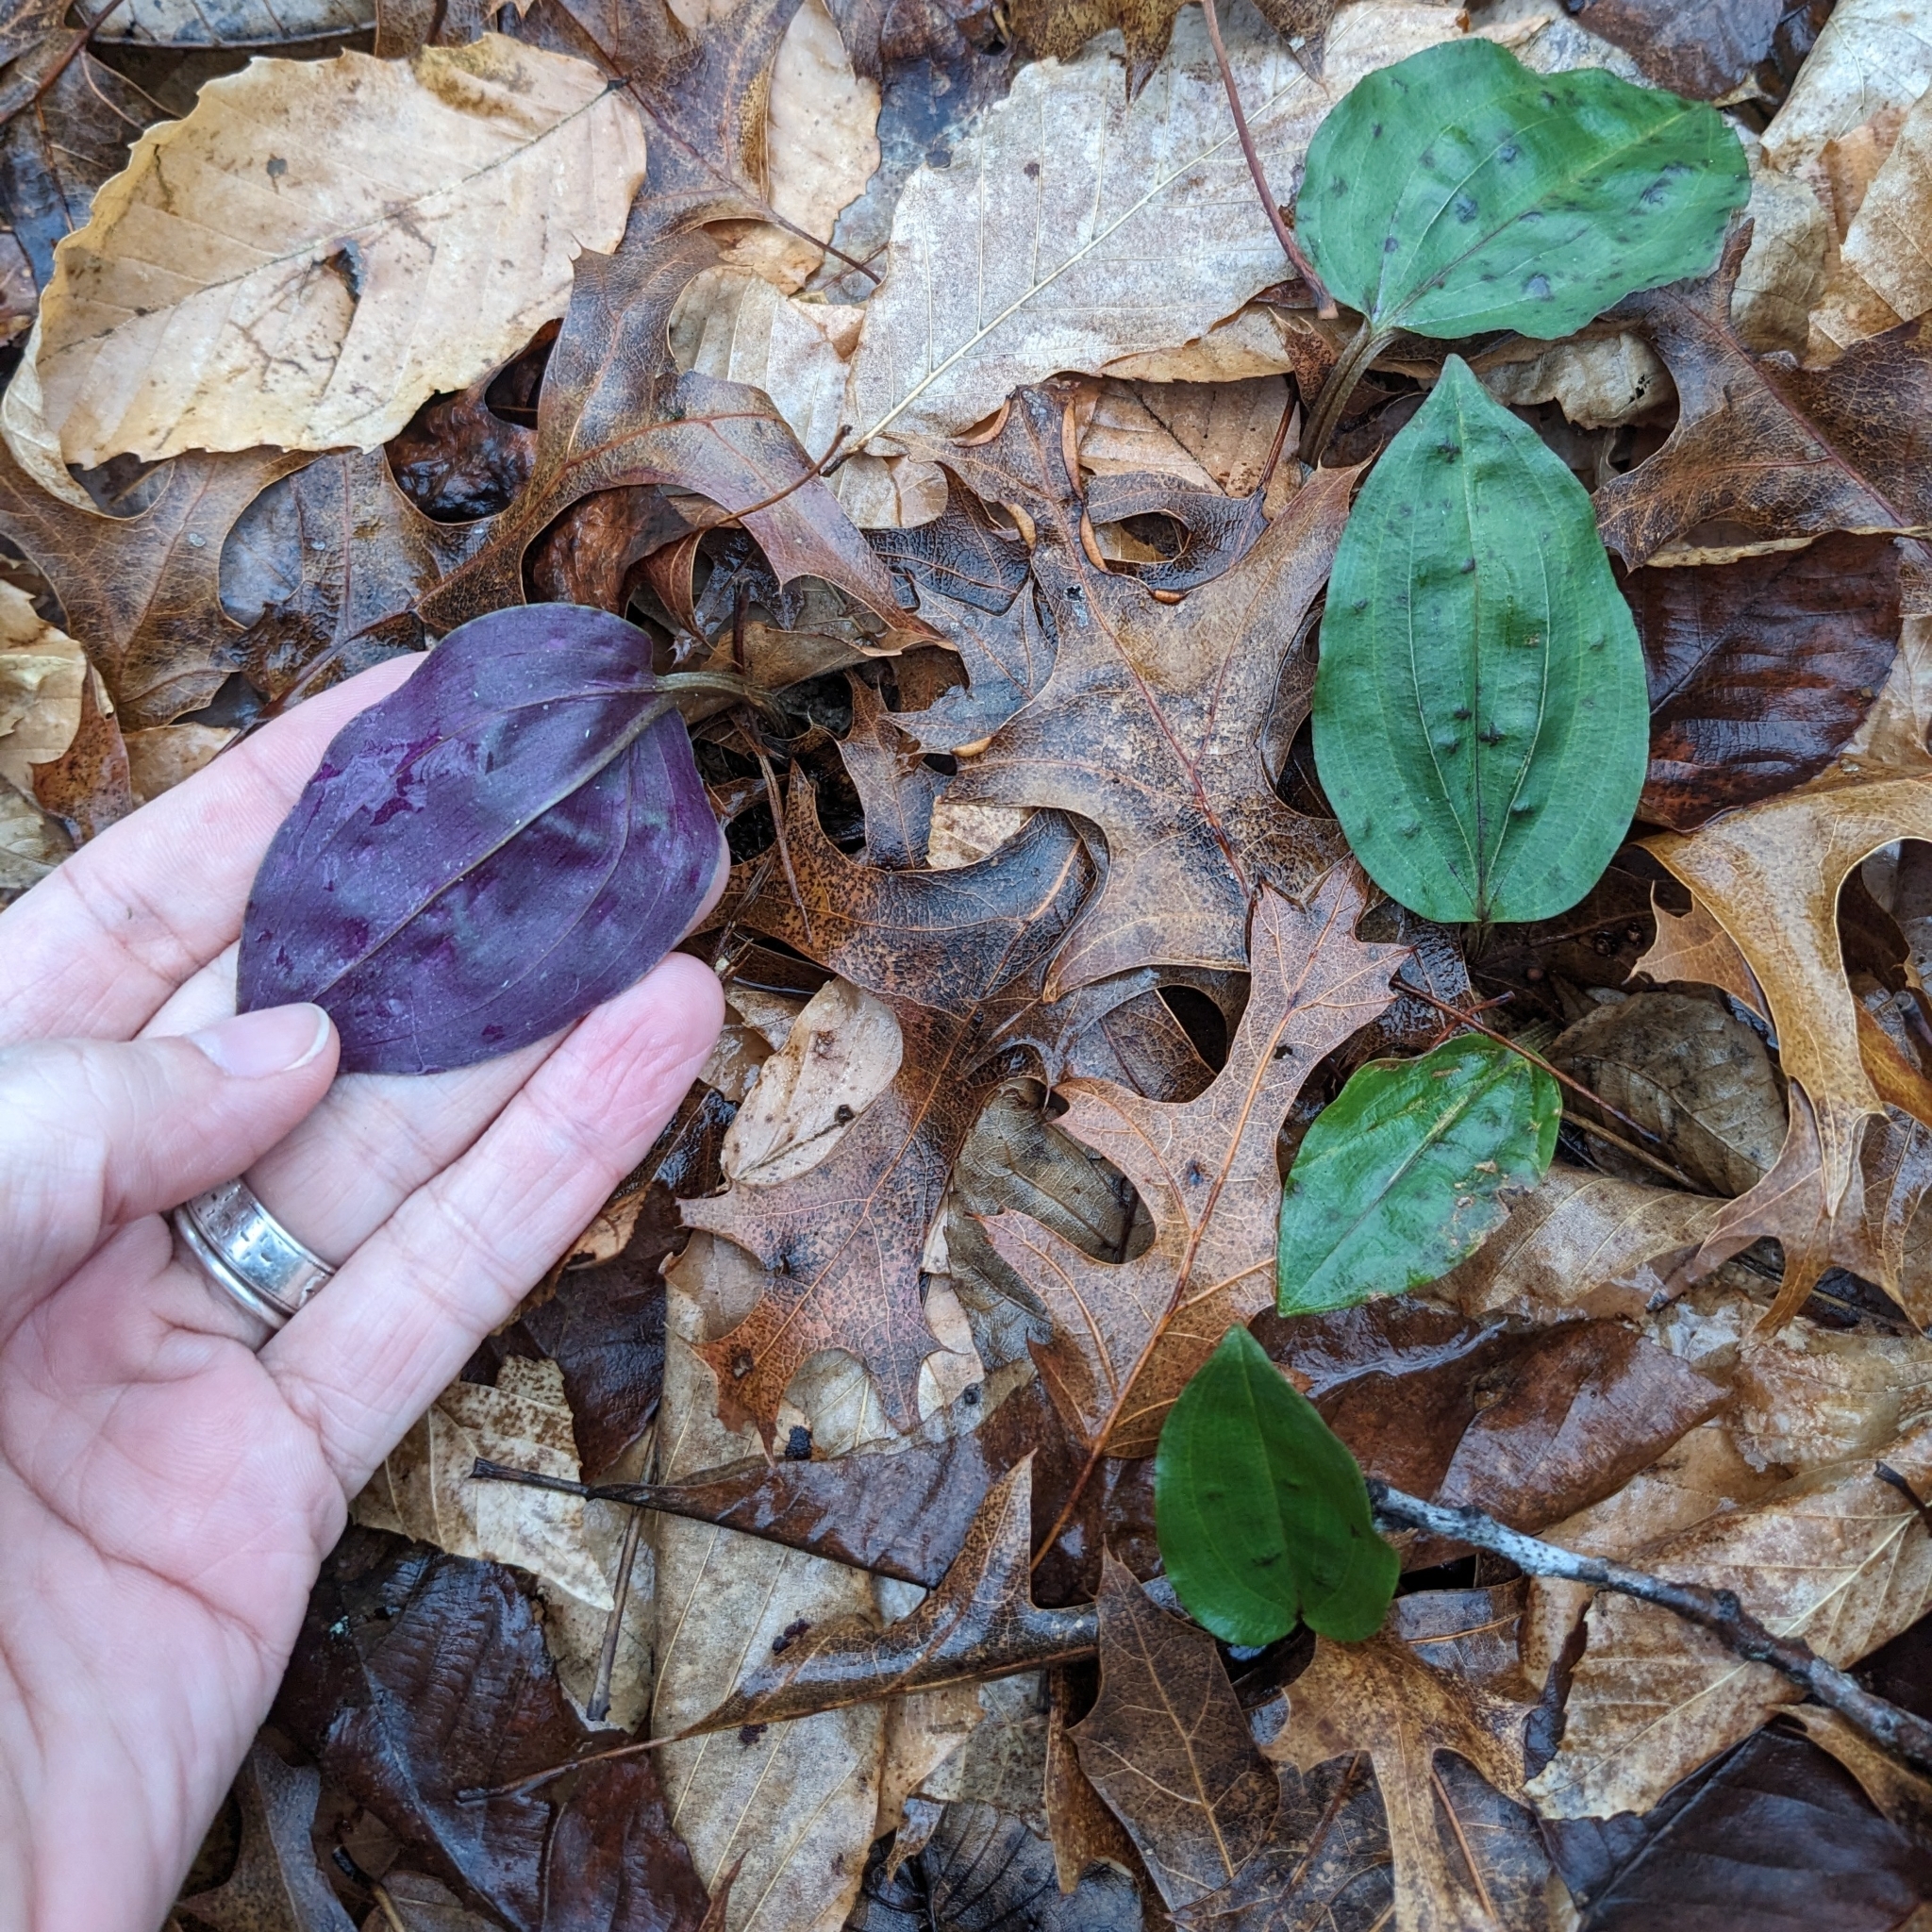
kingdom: Plantae
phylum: Tracheophyta
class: Liliopsida
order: Asparagales
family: Orchidaceae
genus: Tipularia
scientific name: Tipularia discolor
